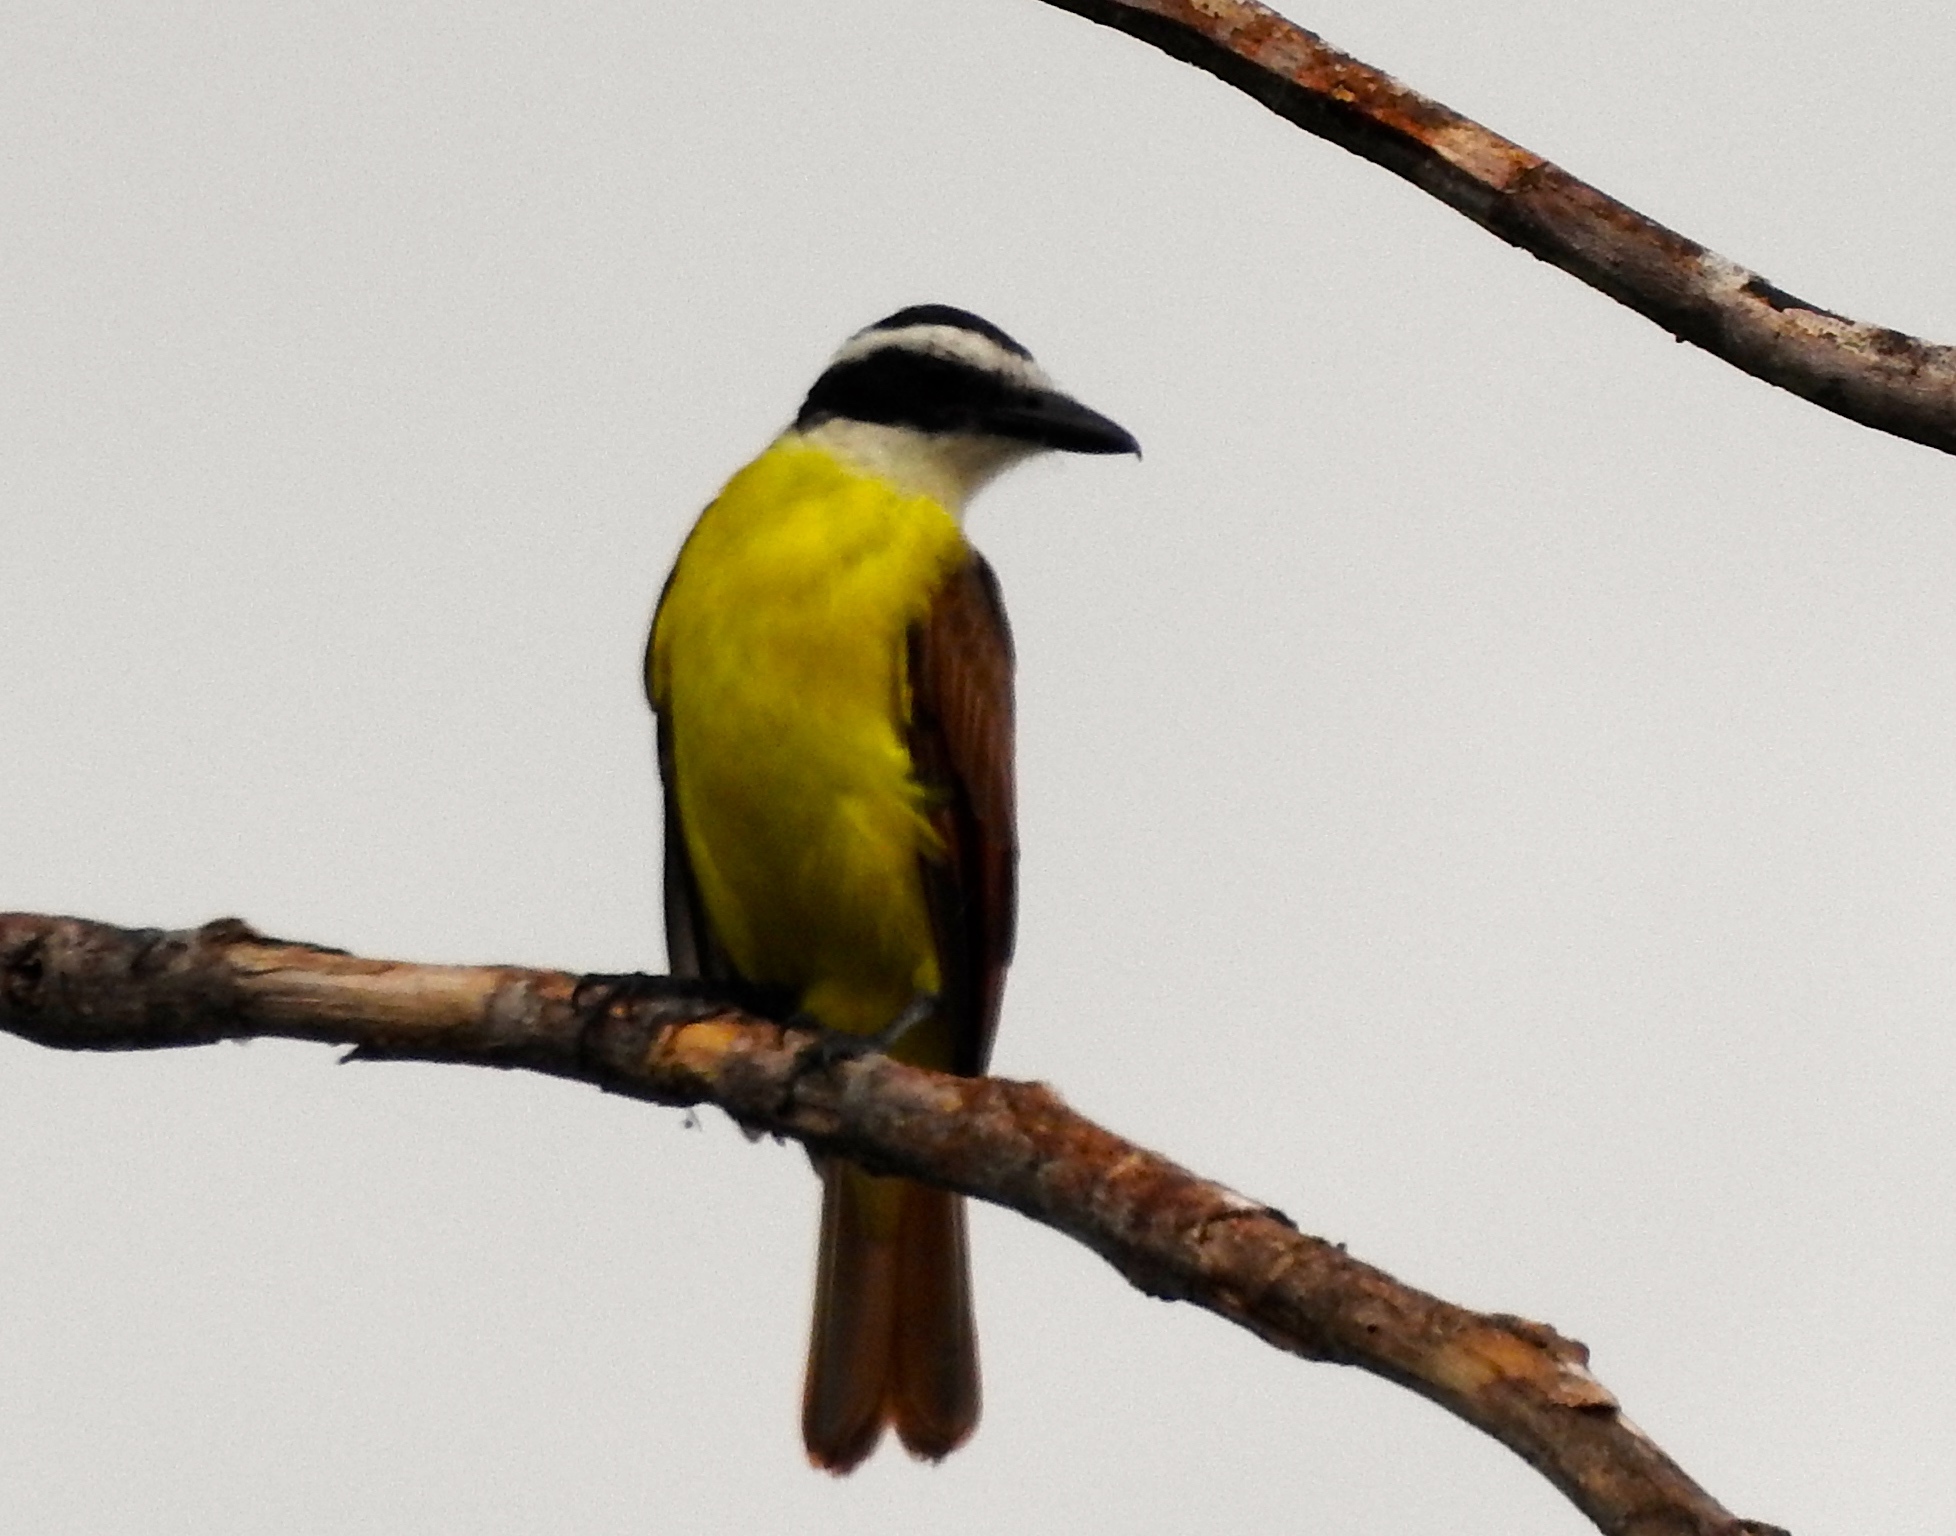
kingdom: Animalia
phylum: Chordata
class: Aves
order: Passeriformes
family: Tyrannidae
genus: Pitangus
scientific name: Pitangus sulphuratus
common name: Great kiskadee
